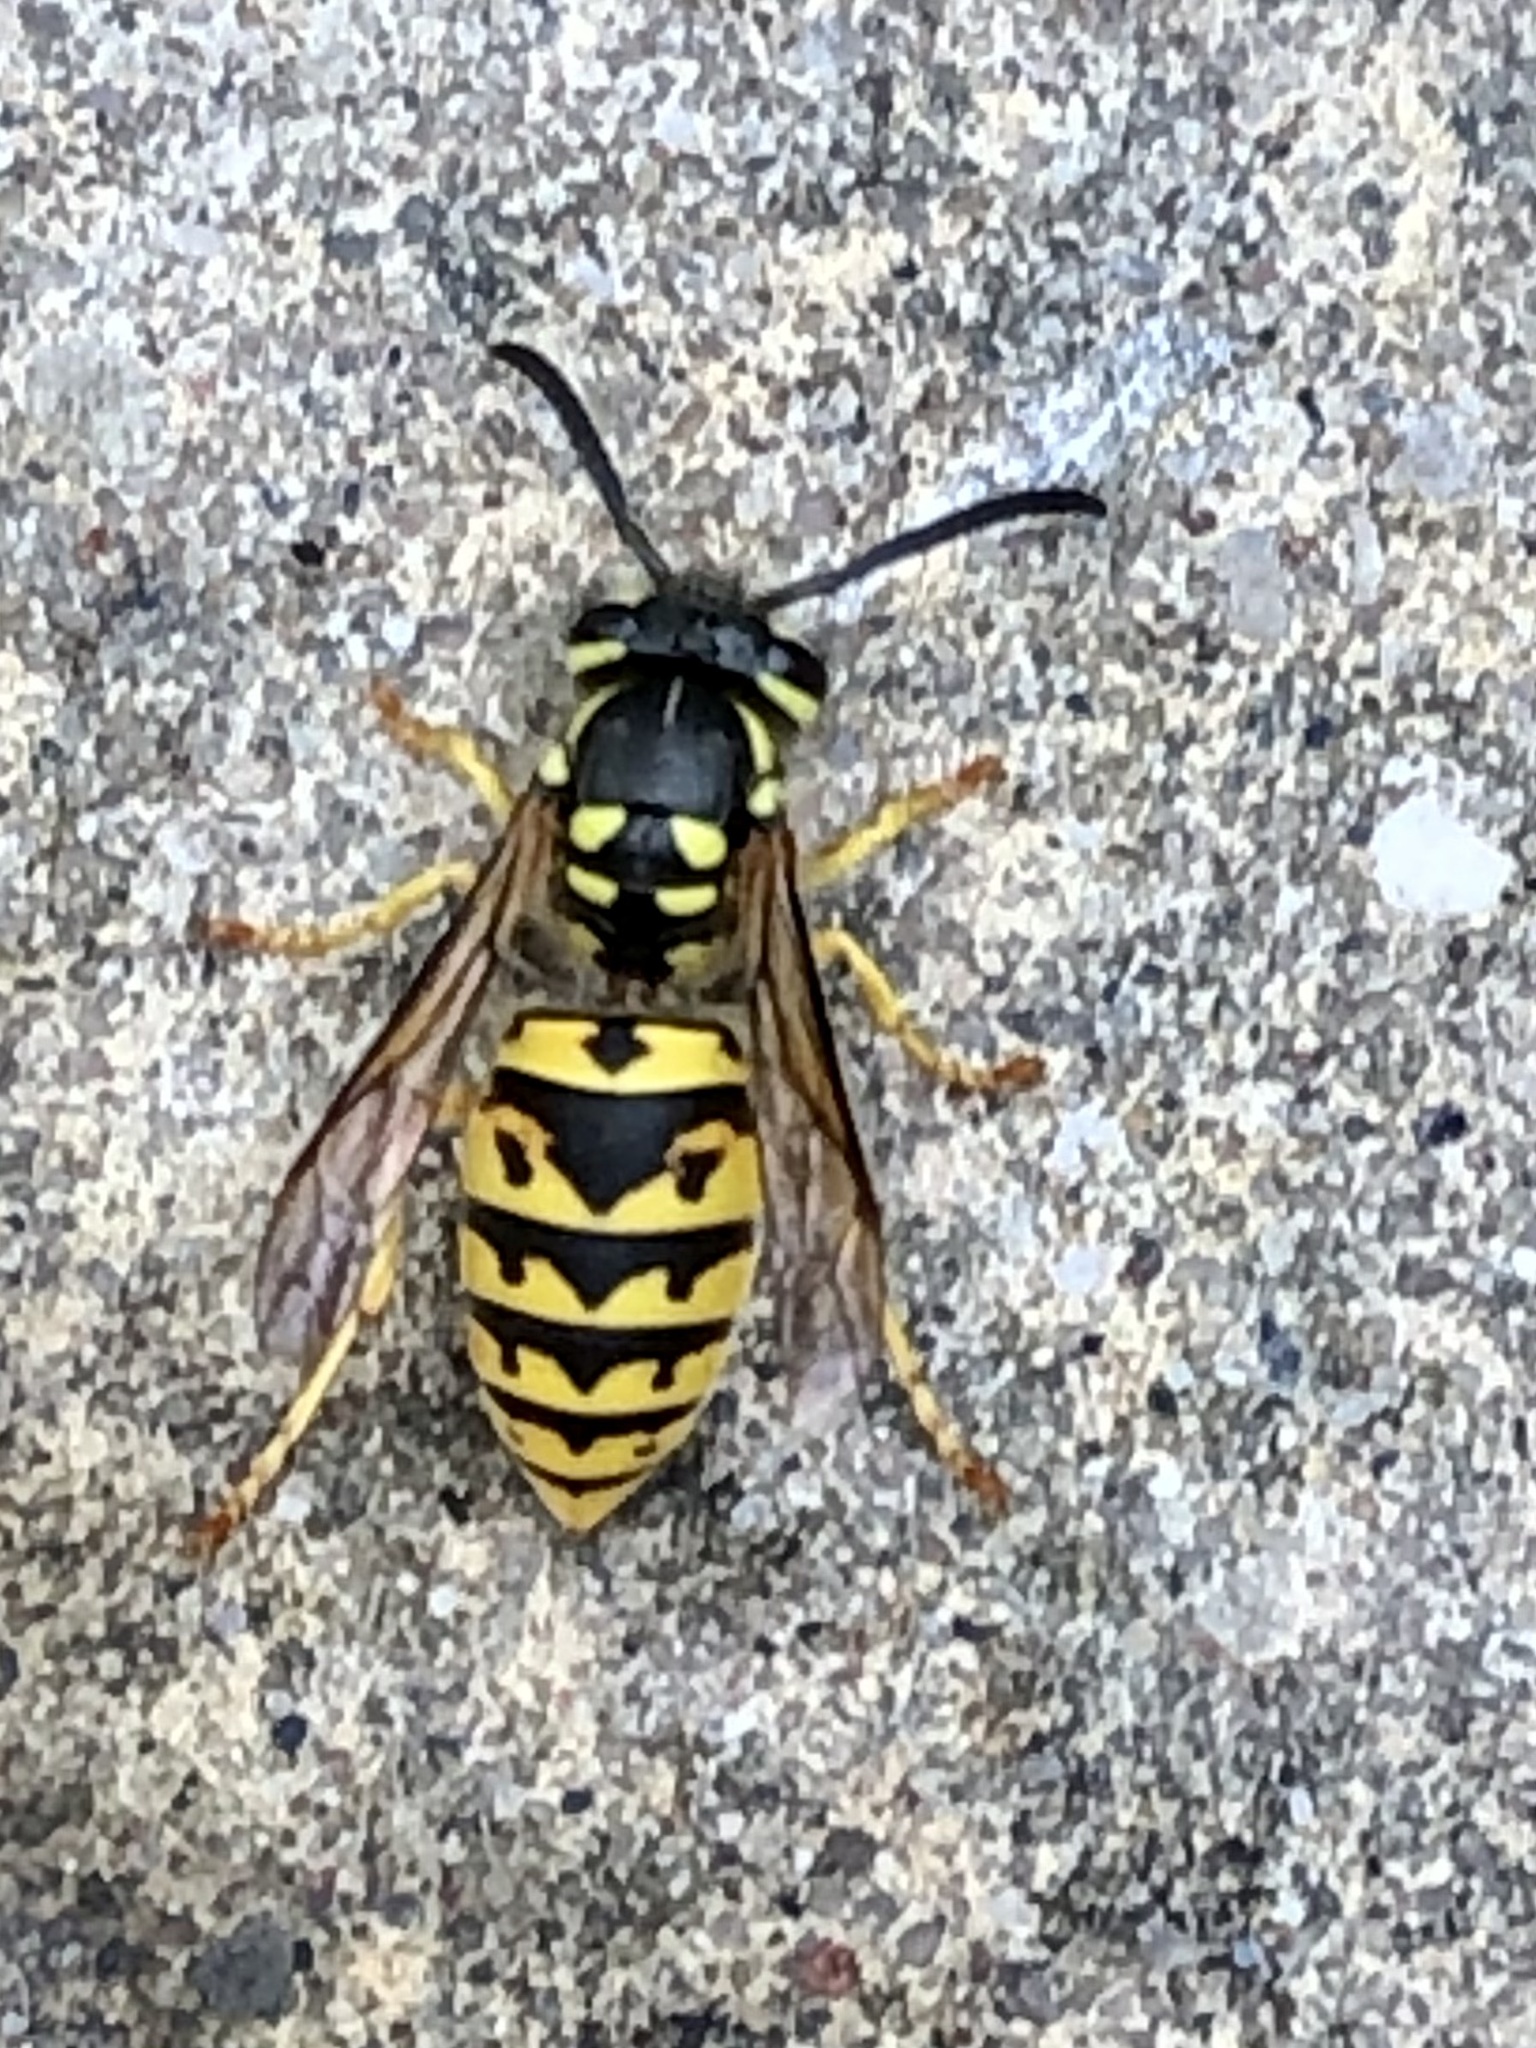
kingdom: Animalia
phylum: Arthropoda
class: Insecta
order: Hymenoptera
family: Vespidae
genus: Vespula
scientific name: Vespula germanica
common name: German wasp
